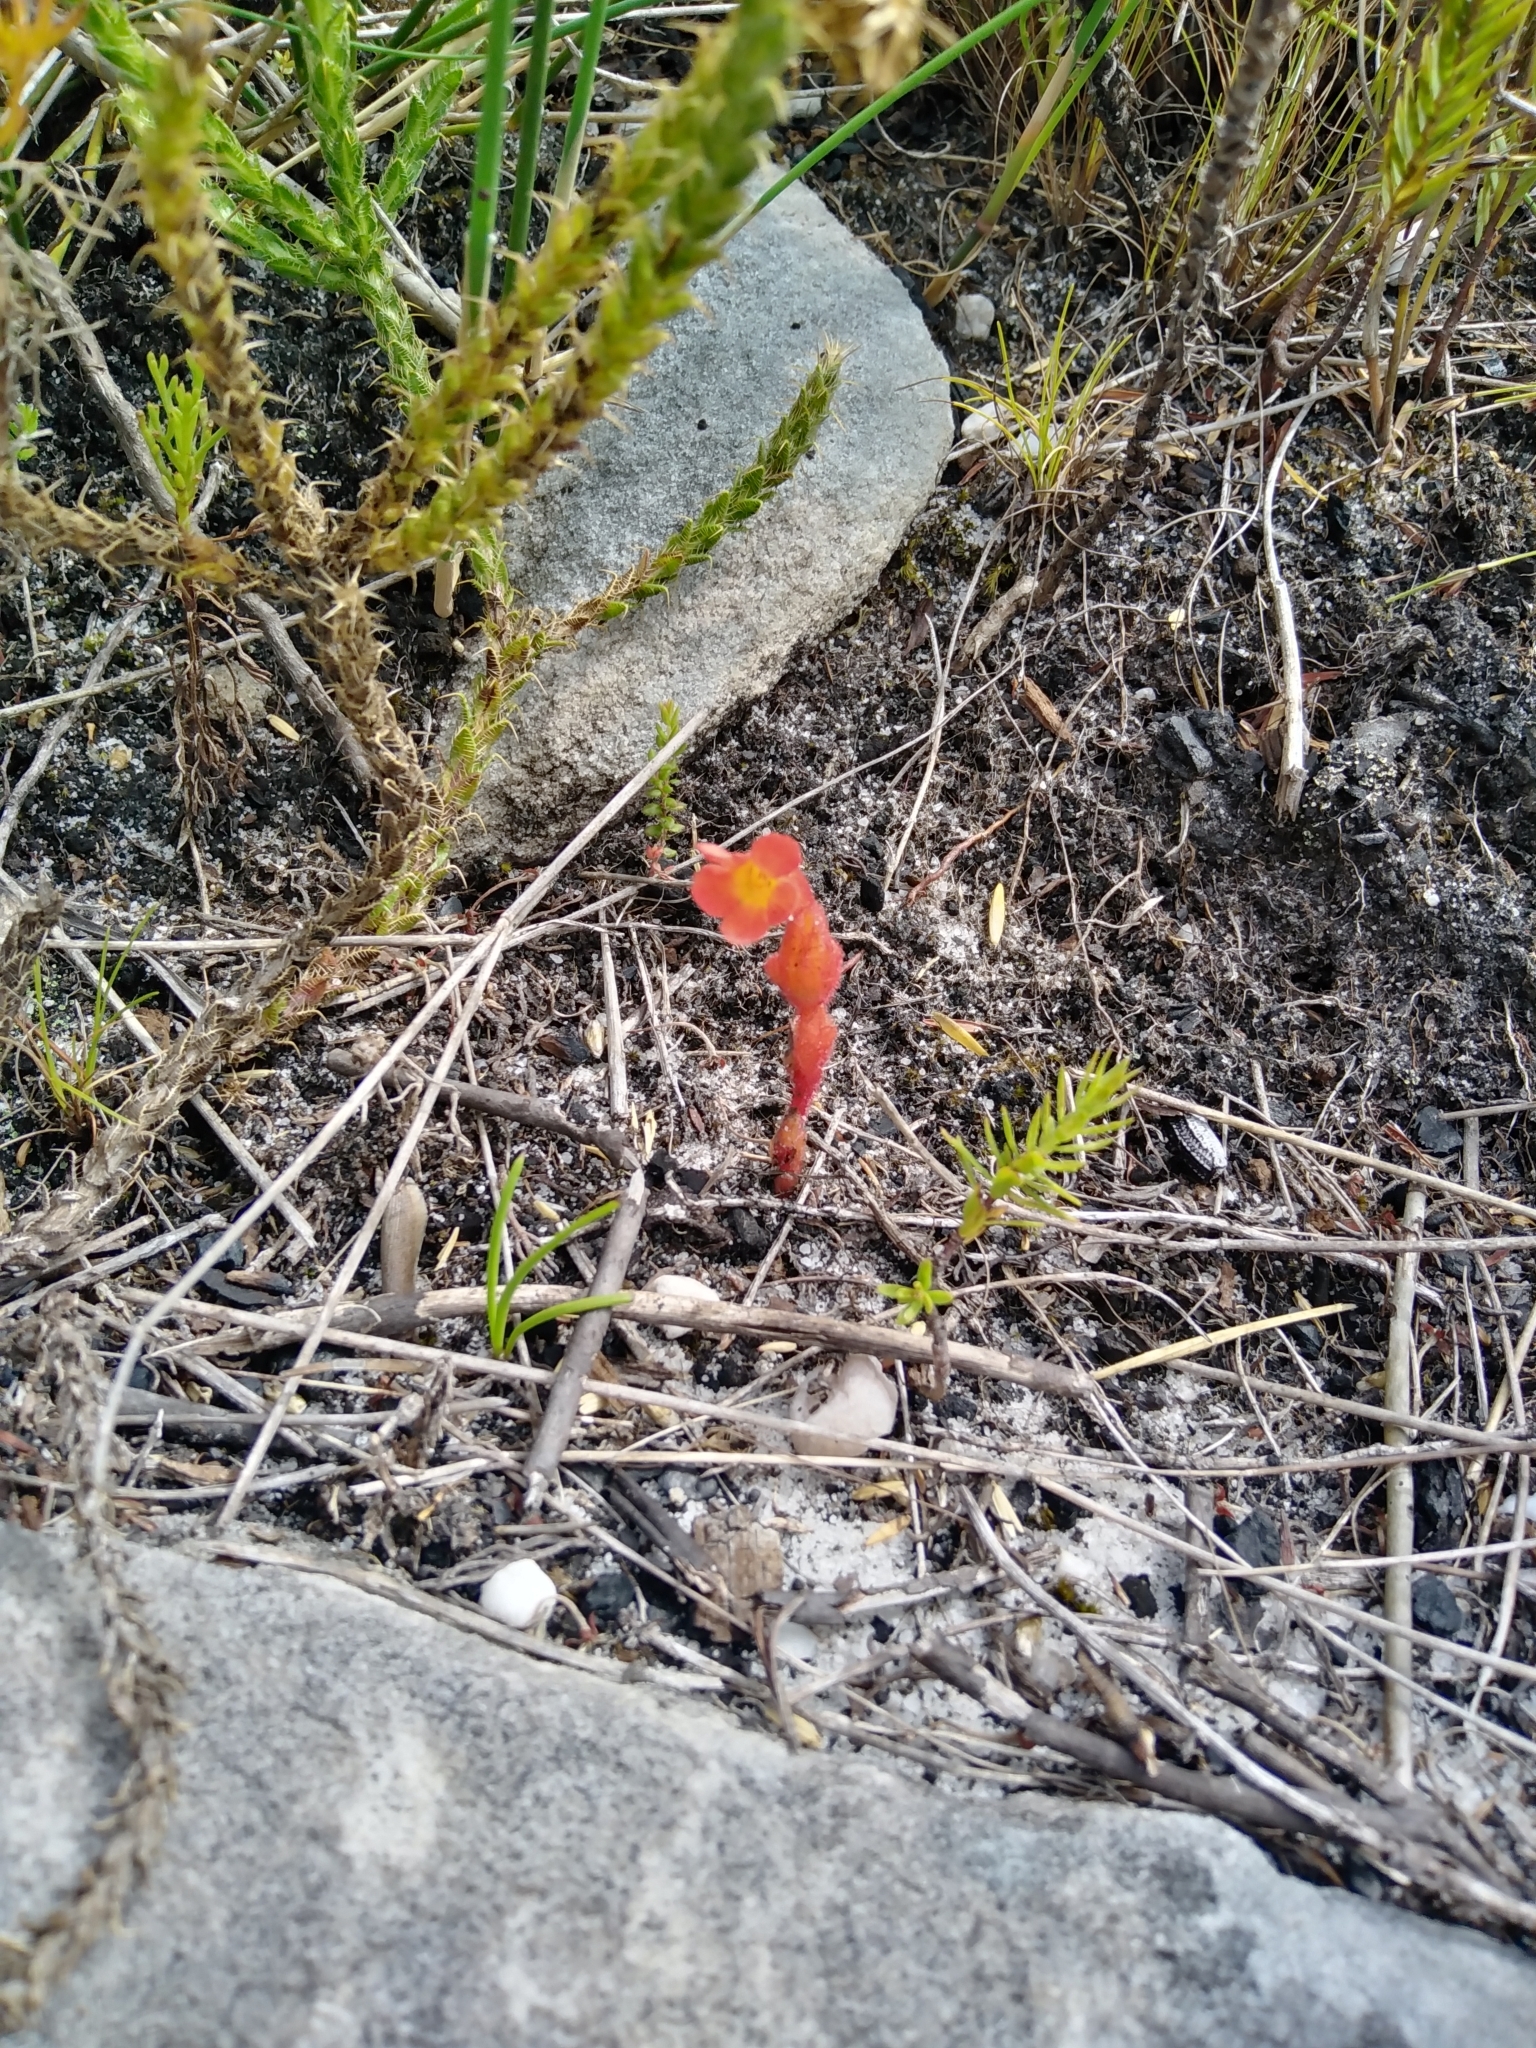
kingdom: Plantae
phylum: Tracheophyta
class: Magnoliopsida
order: Lamiales
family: Orobanchaceae
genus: Harveya
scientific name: Harveya bolusii
